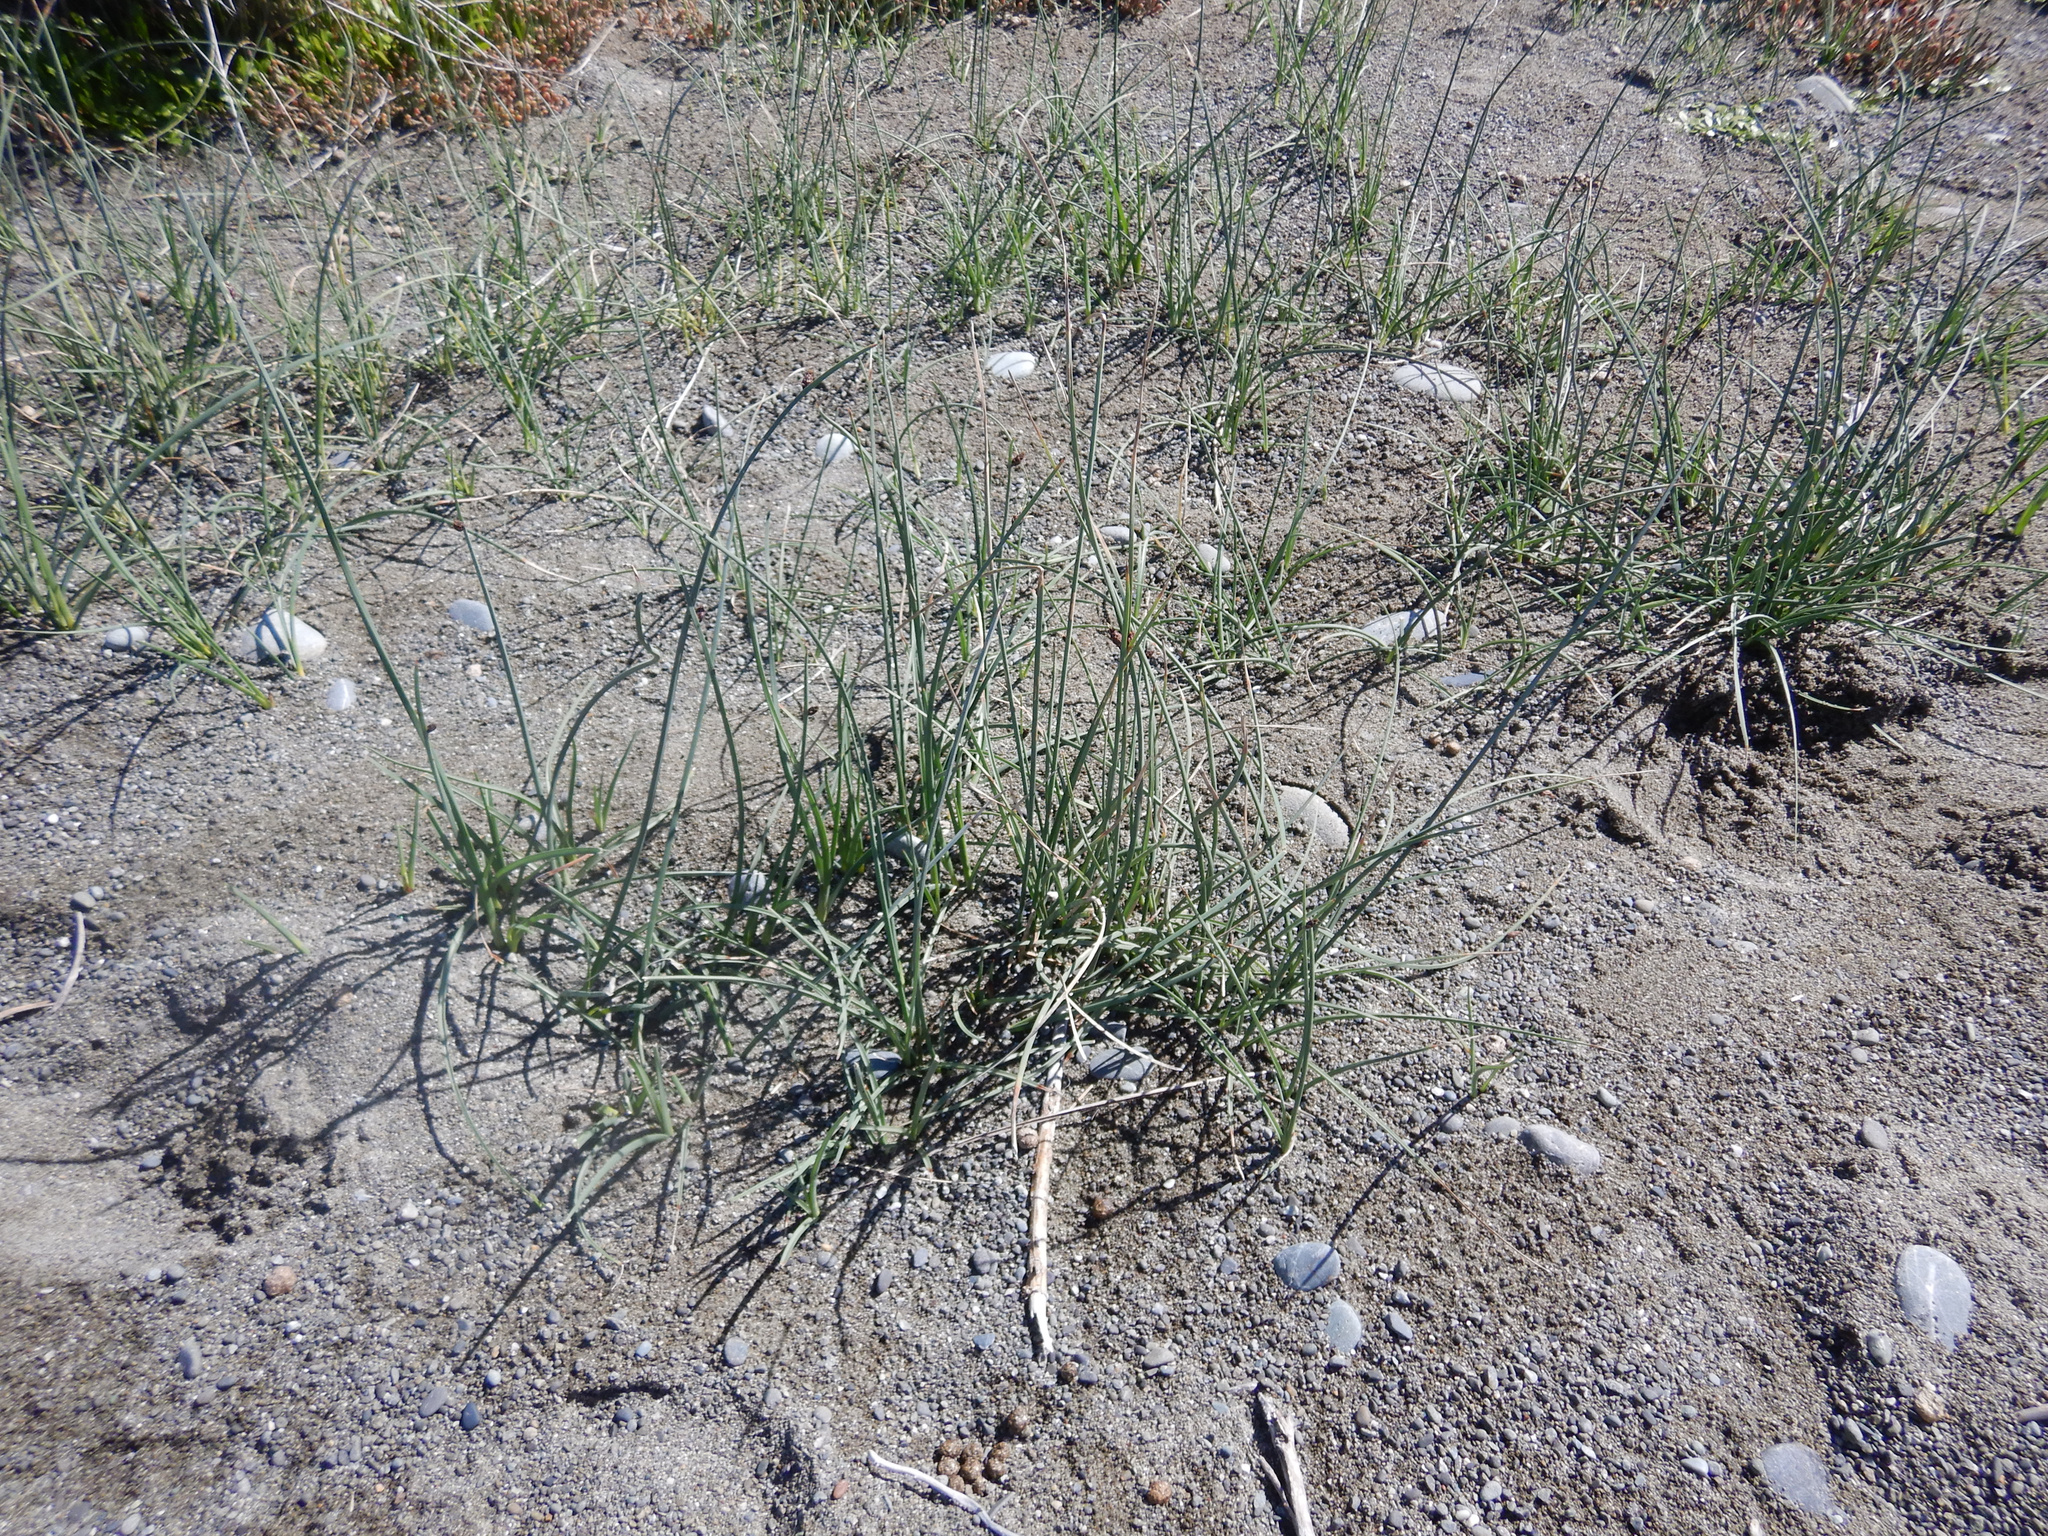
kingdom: Plantae
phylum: Tracheophyta
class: Liliopsida
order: Poales
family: Cyperaceae
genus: Schoenoplectus
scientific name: Schoenoplectus pungens
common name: Sharp club-rush
